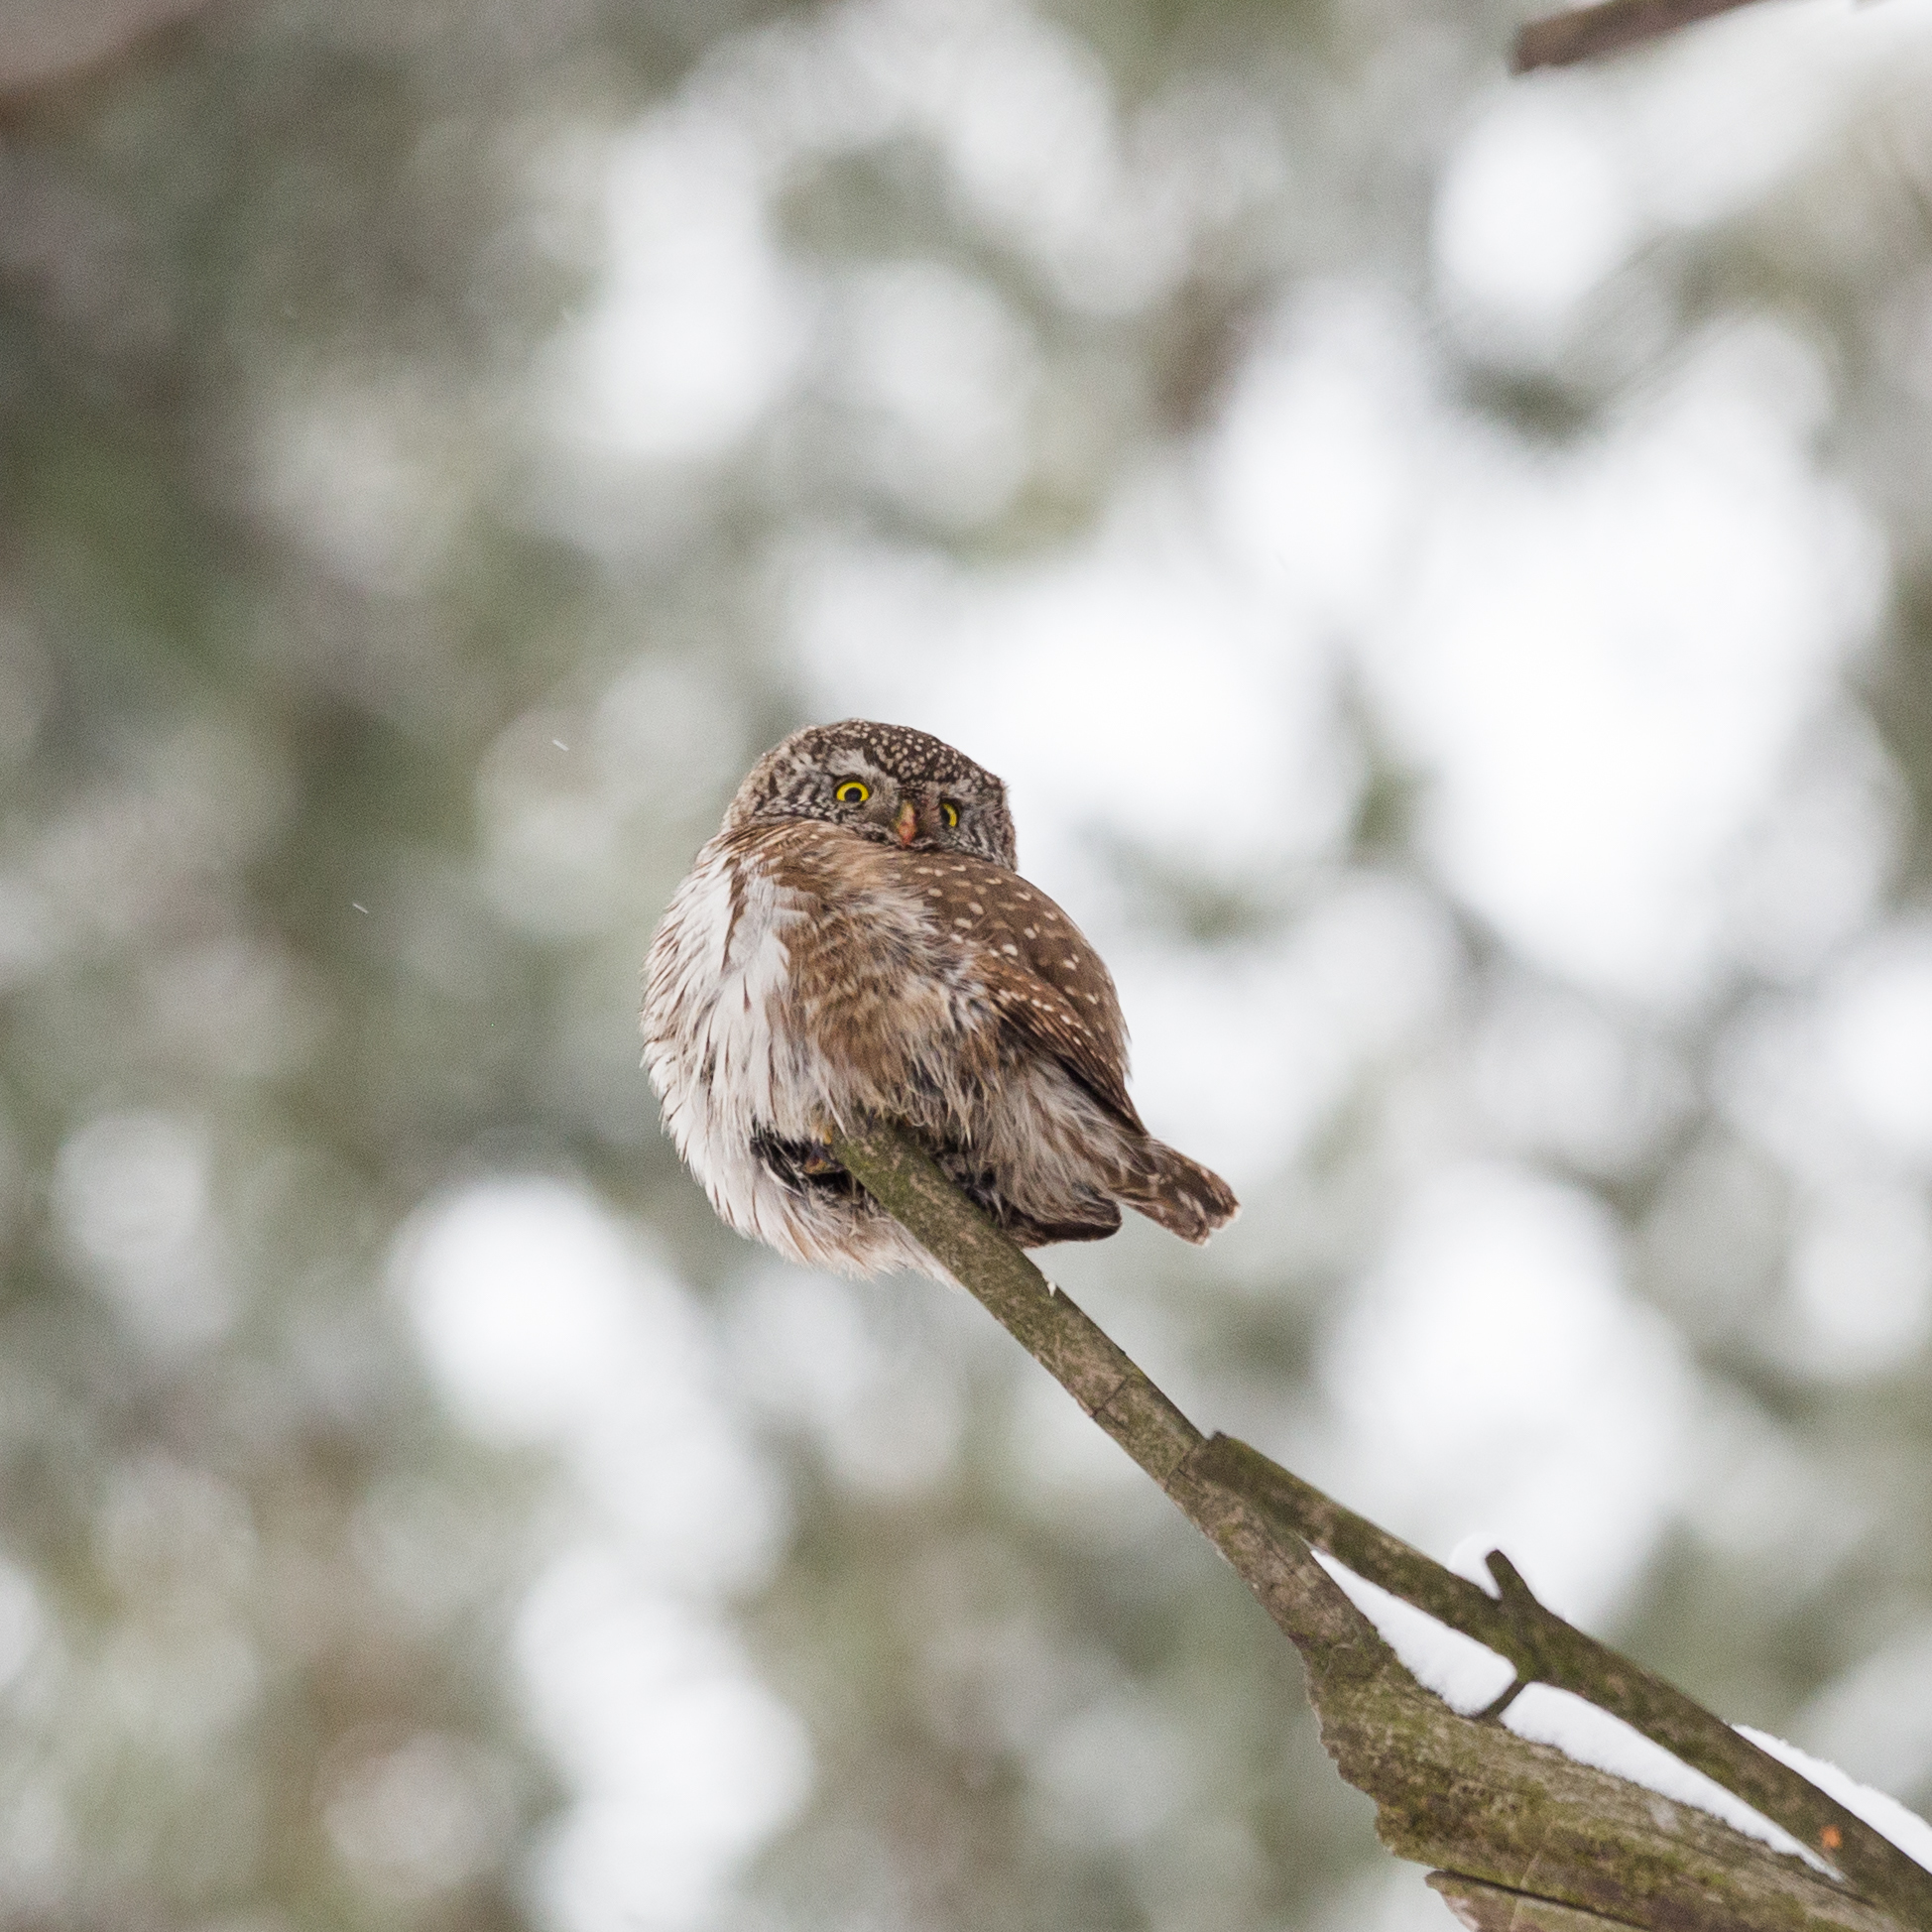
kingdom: Animalia
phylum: Chordata
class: Aves
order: Strigiformes
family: Strigidae
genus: Glaucidium
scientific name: Glaucidium passerinum
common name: Eurasian pygmy owl
